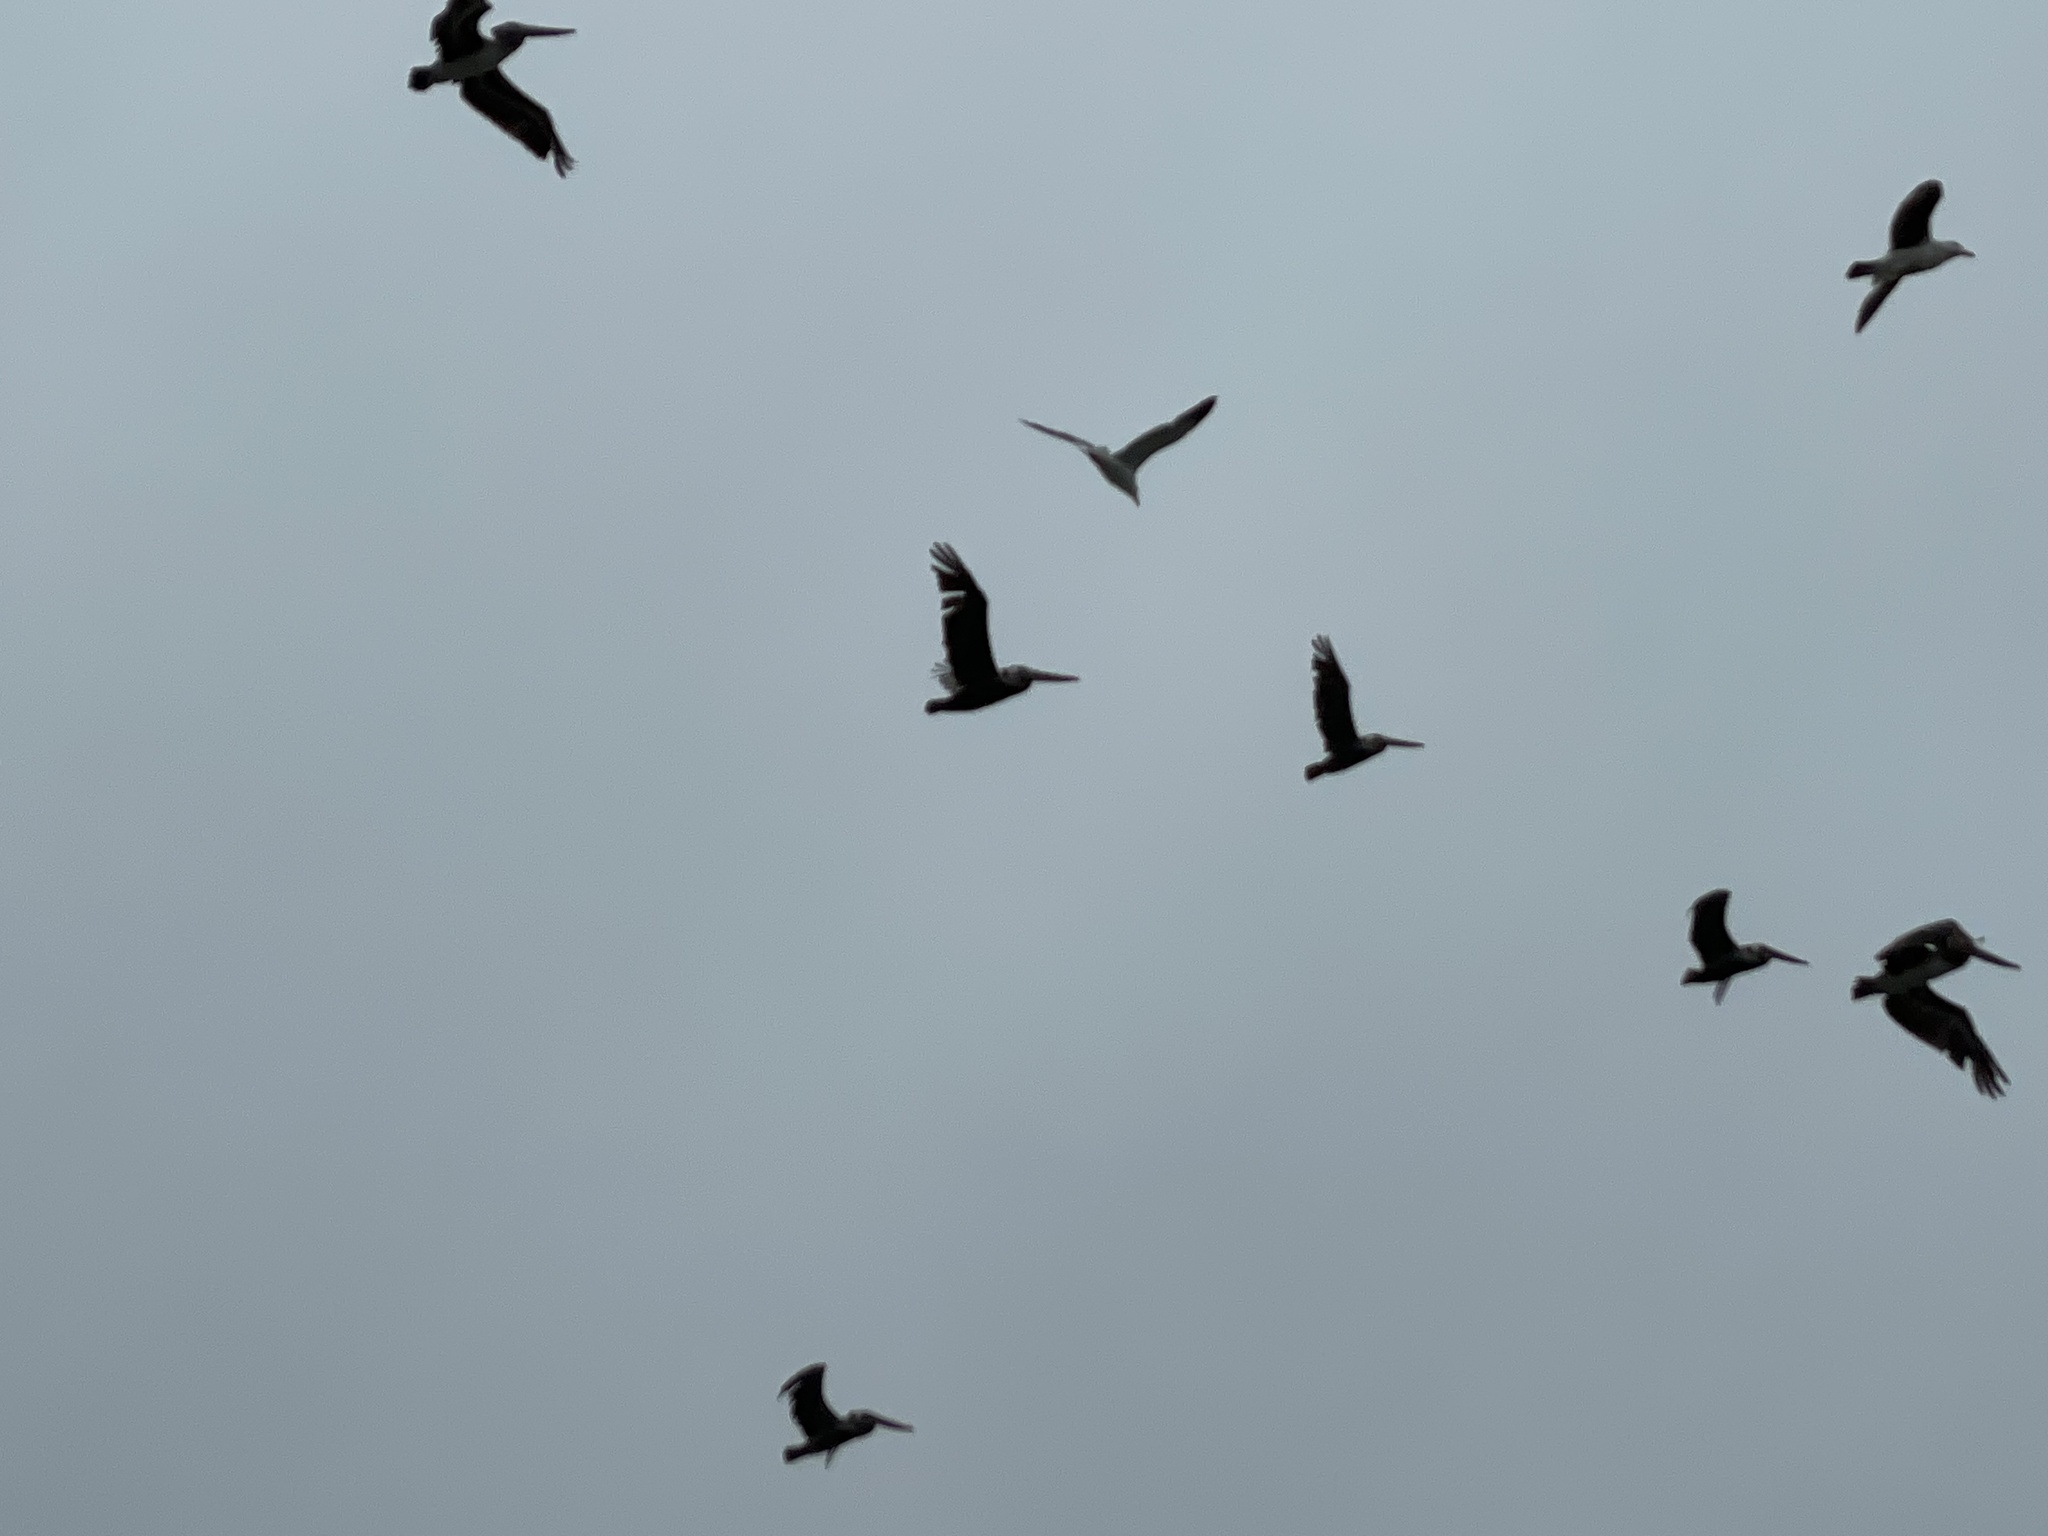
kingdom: Animalia
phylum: Chordata
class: Aves
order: Pelecaniformes
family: Pelecanidae
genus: Pelecanus
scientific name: Pelecanus occidentalis
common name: Brown pelican
